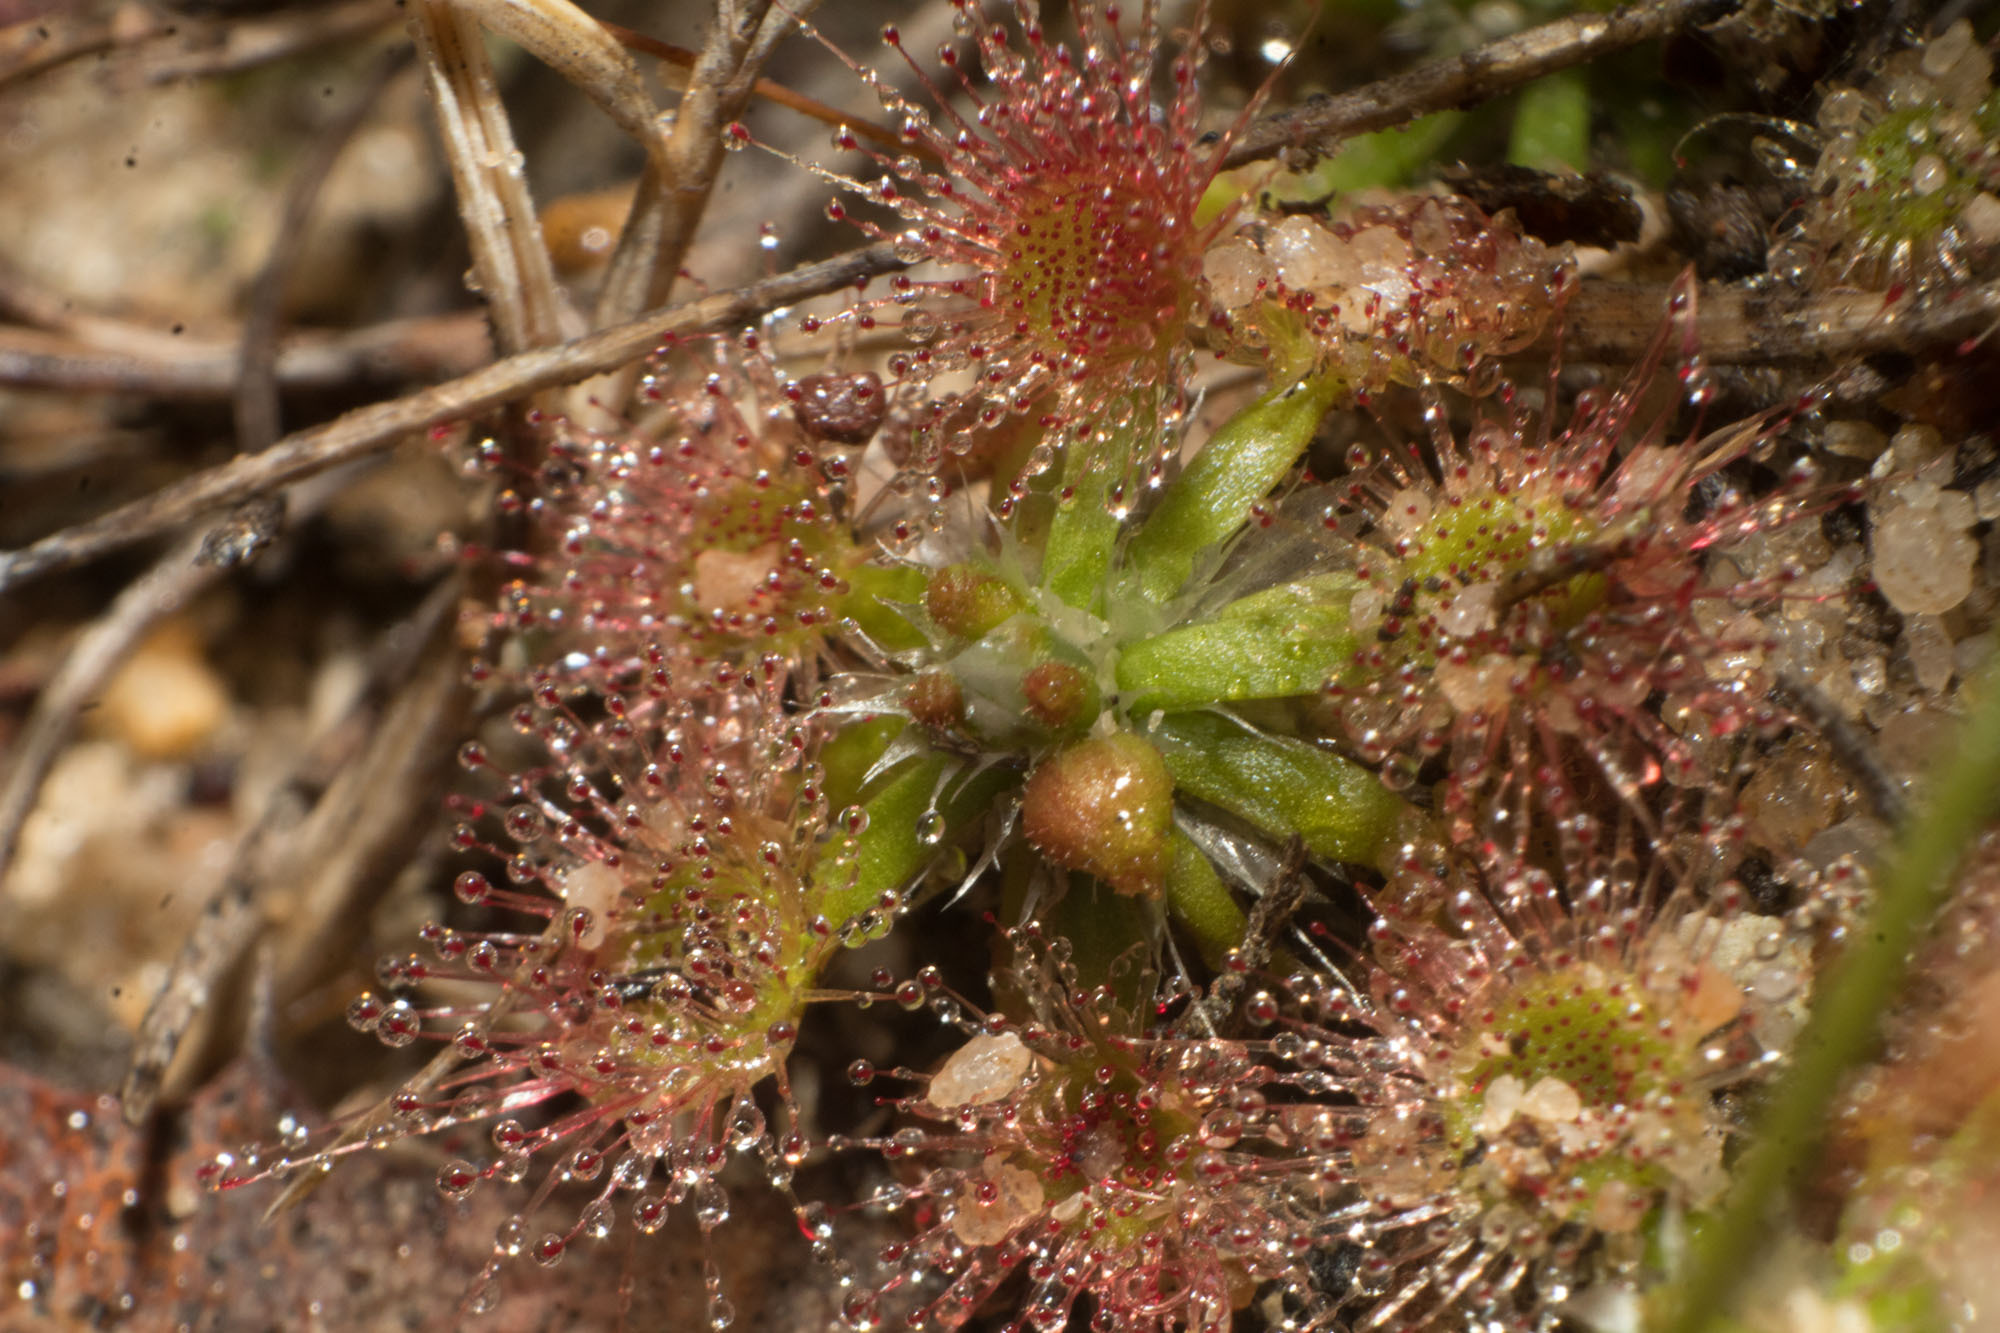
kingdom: Plantae
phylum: Tracheophyta
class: Magnoliopsida
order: Caryophyllales
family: Droseraceae
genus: Drosera
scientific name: Drosera androsacea
